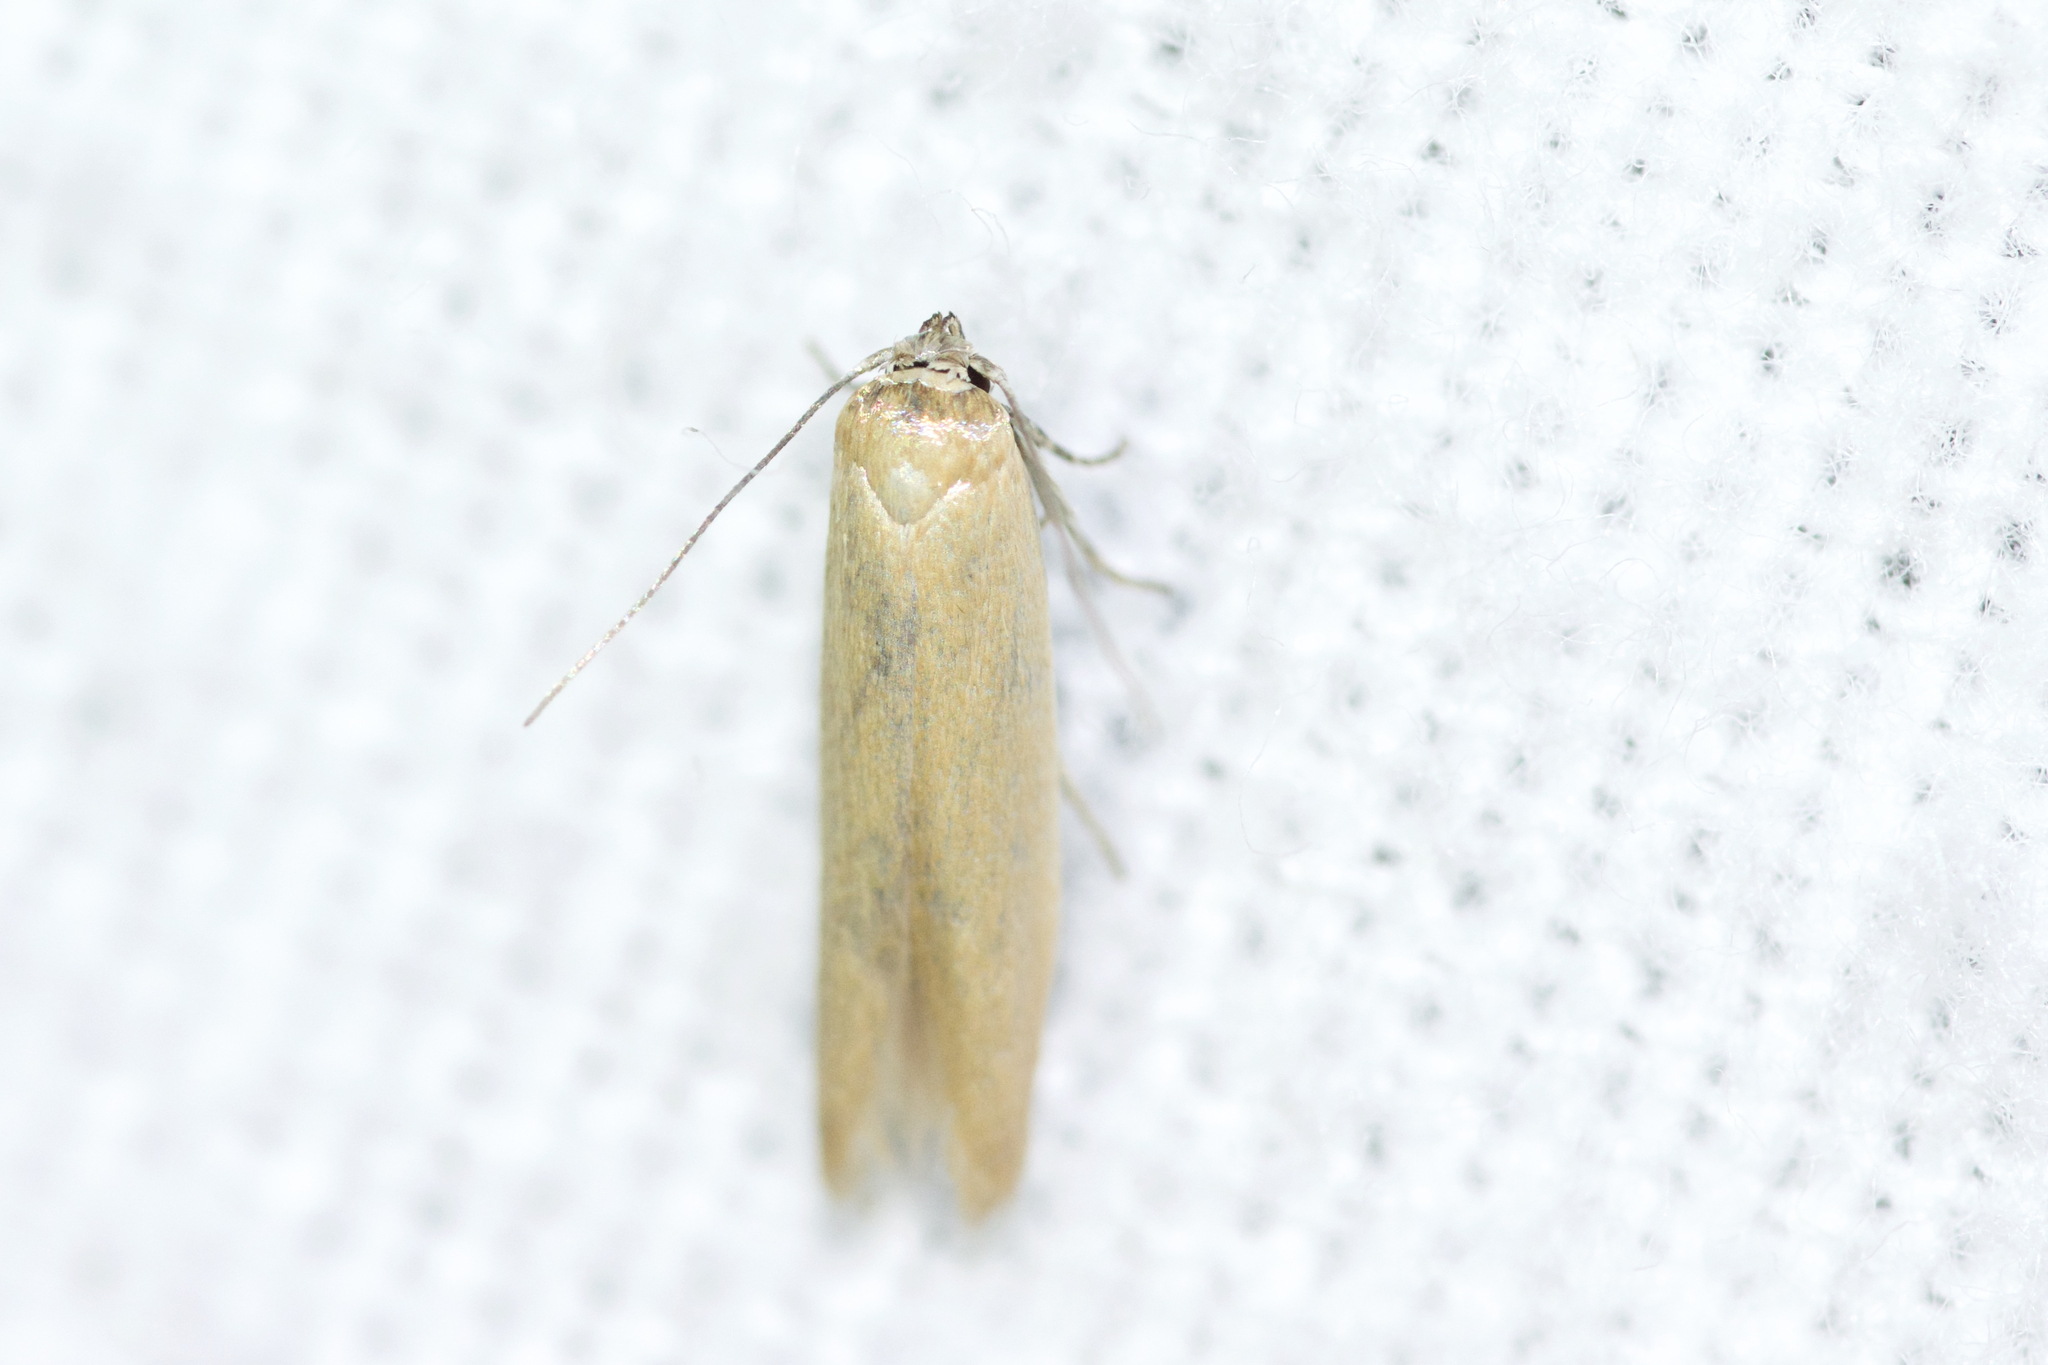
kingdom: Animalia
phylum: Arthropoda
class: Insecta
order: Lepidoptera
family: Blastobasidae
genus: Holcocerina
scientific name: Holcocerina immaculella
